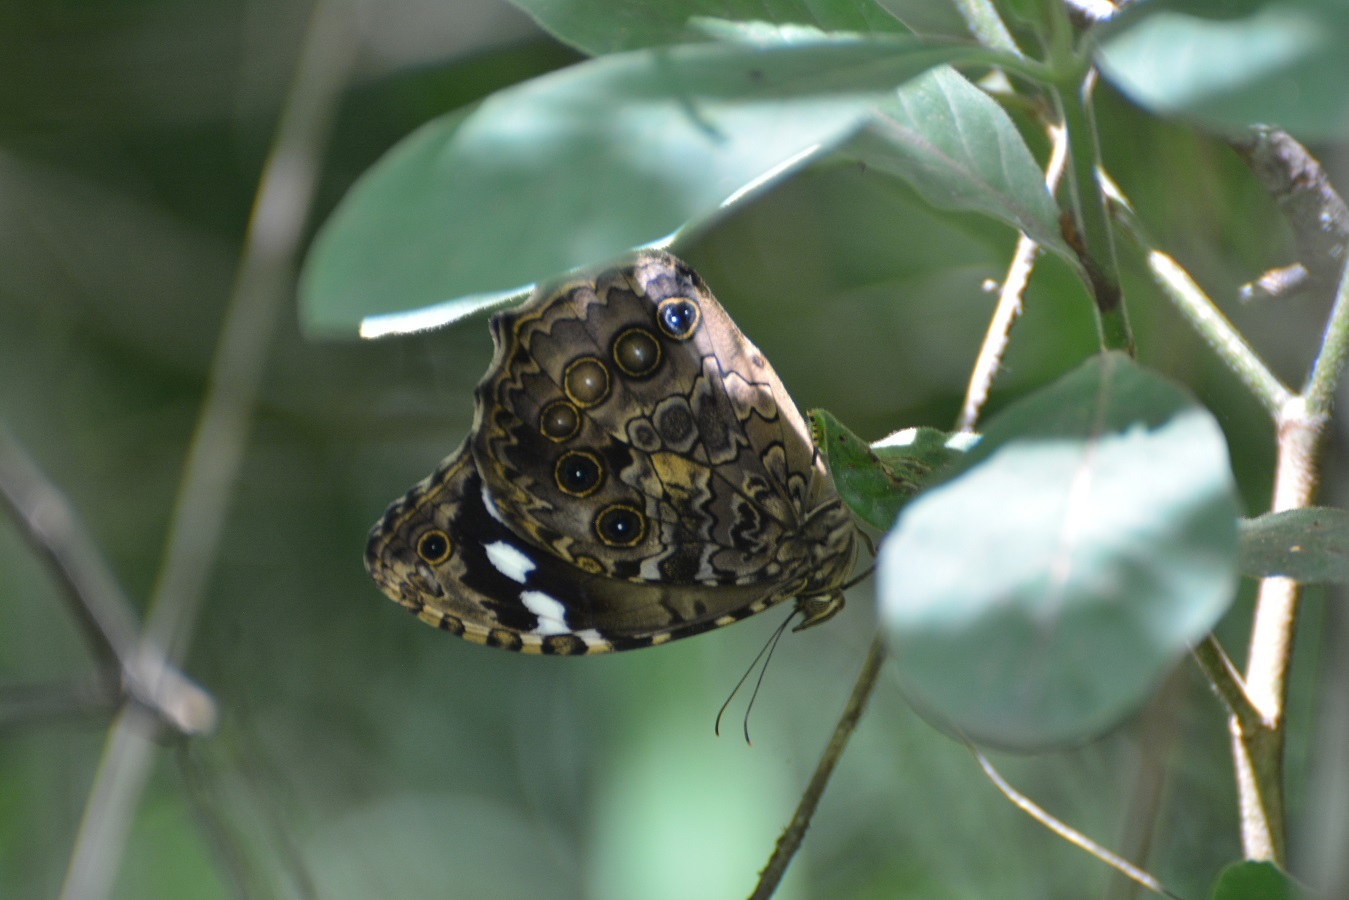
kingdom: Animalia
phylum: Arthropoda
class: Insecta
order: Lepidoptera
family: Nymphalidae
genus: Manataria
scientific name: Manataria maculata
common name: White-spotted satyr
